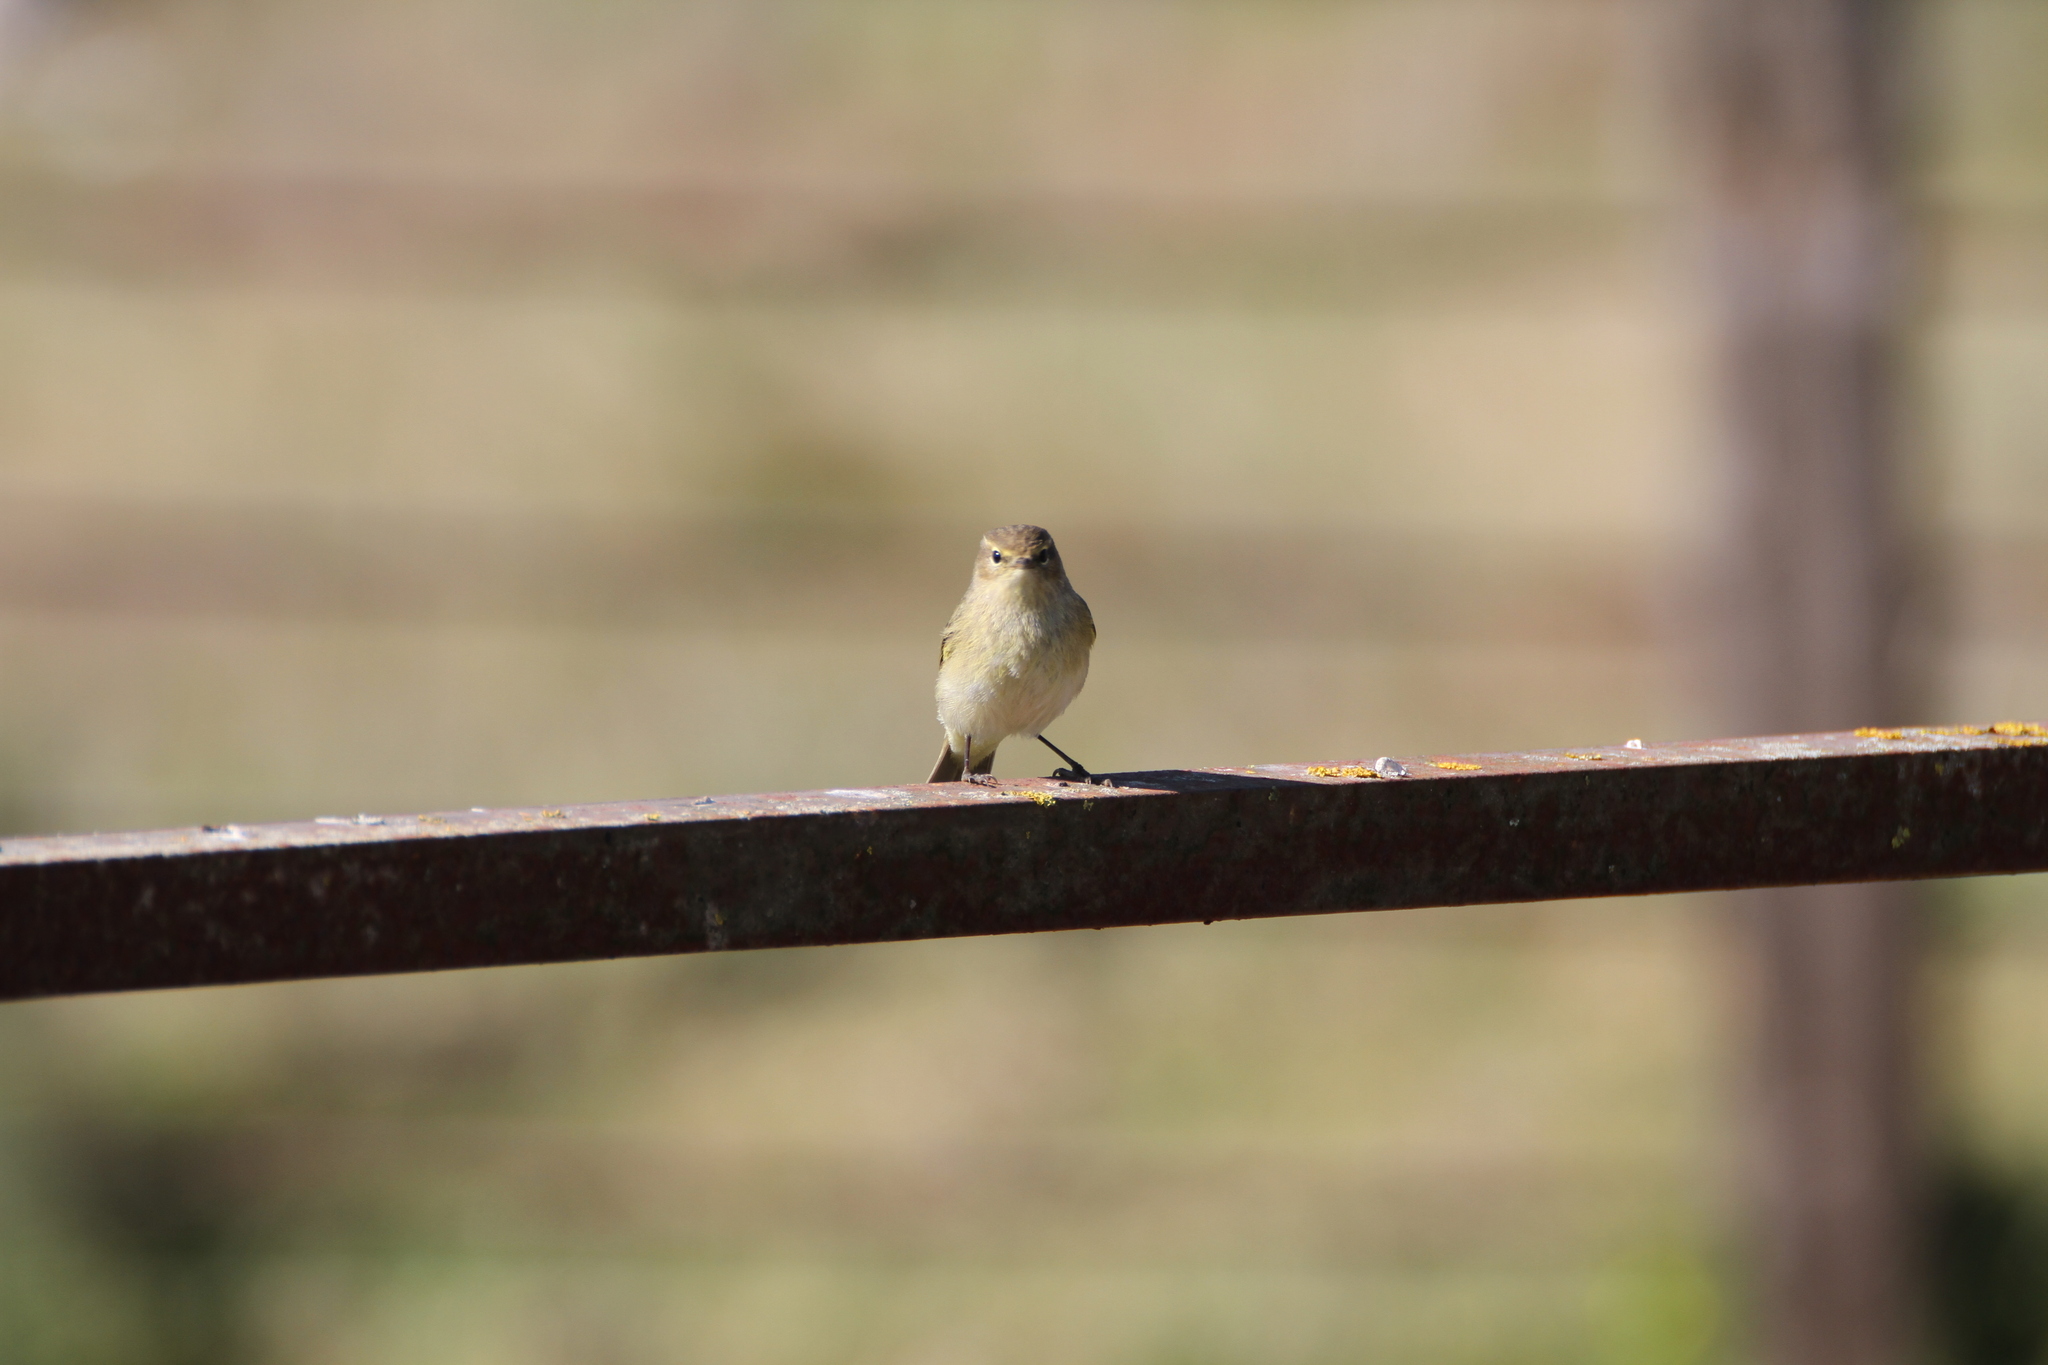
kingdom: Animalia
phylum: Chordata
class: Aves
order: Passeriformes
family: Phylloscopidae
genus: Phylloscopus
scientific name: Phylloscopus collybita
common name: Common chiffchaff
